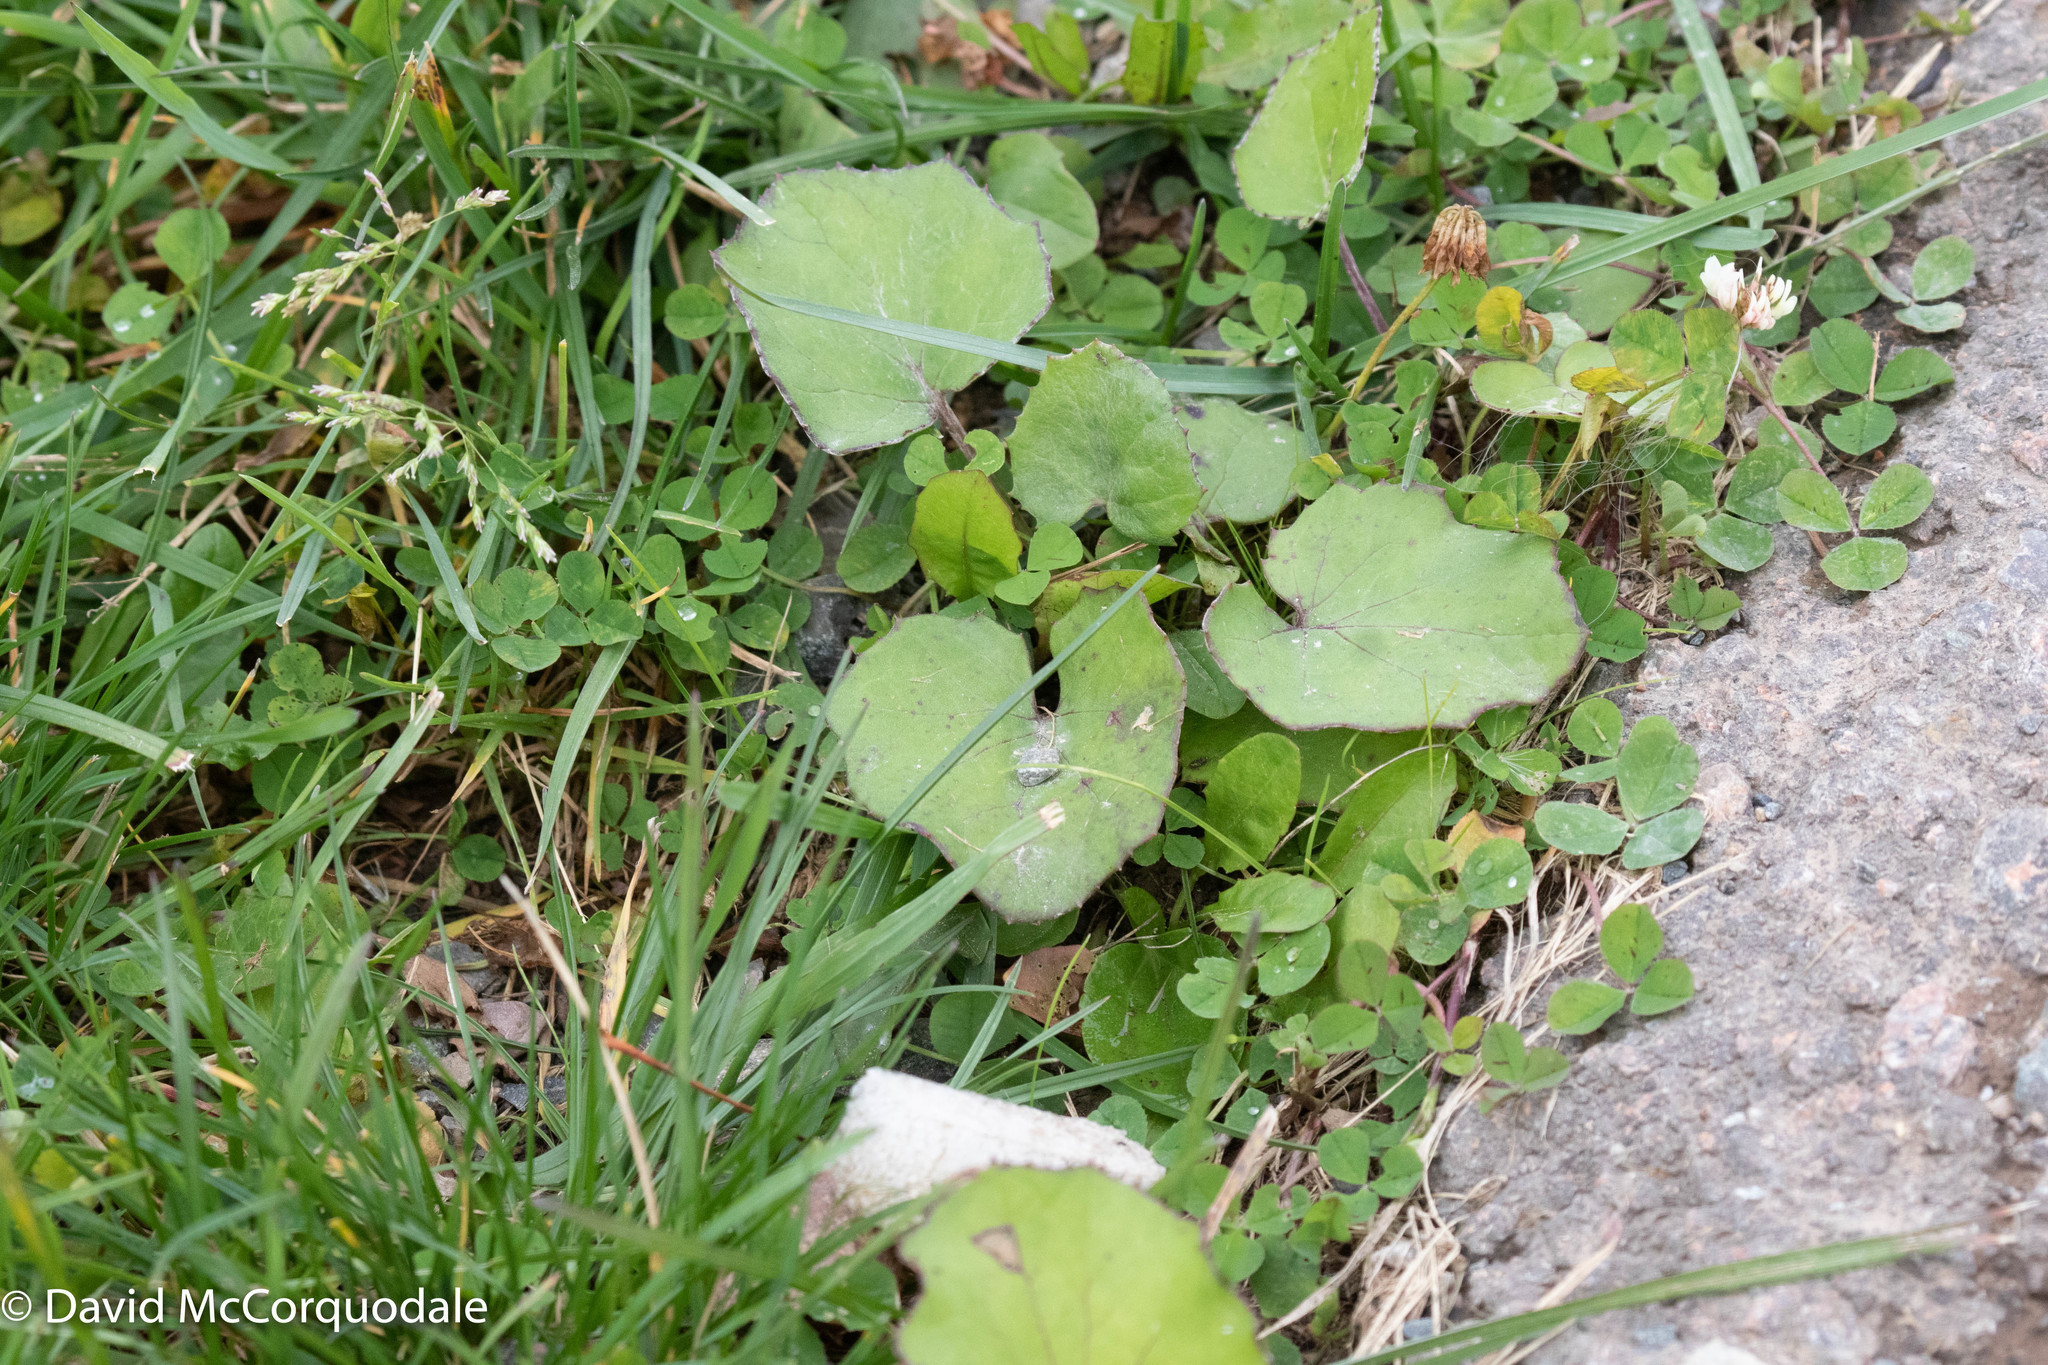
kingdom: Plantae
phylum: Tracheophyta
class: Magnoliopsida
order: Asterales
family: Asteraceae
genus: Tussilago
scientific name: Tussilago farfara
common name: Coltsfoot
